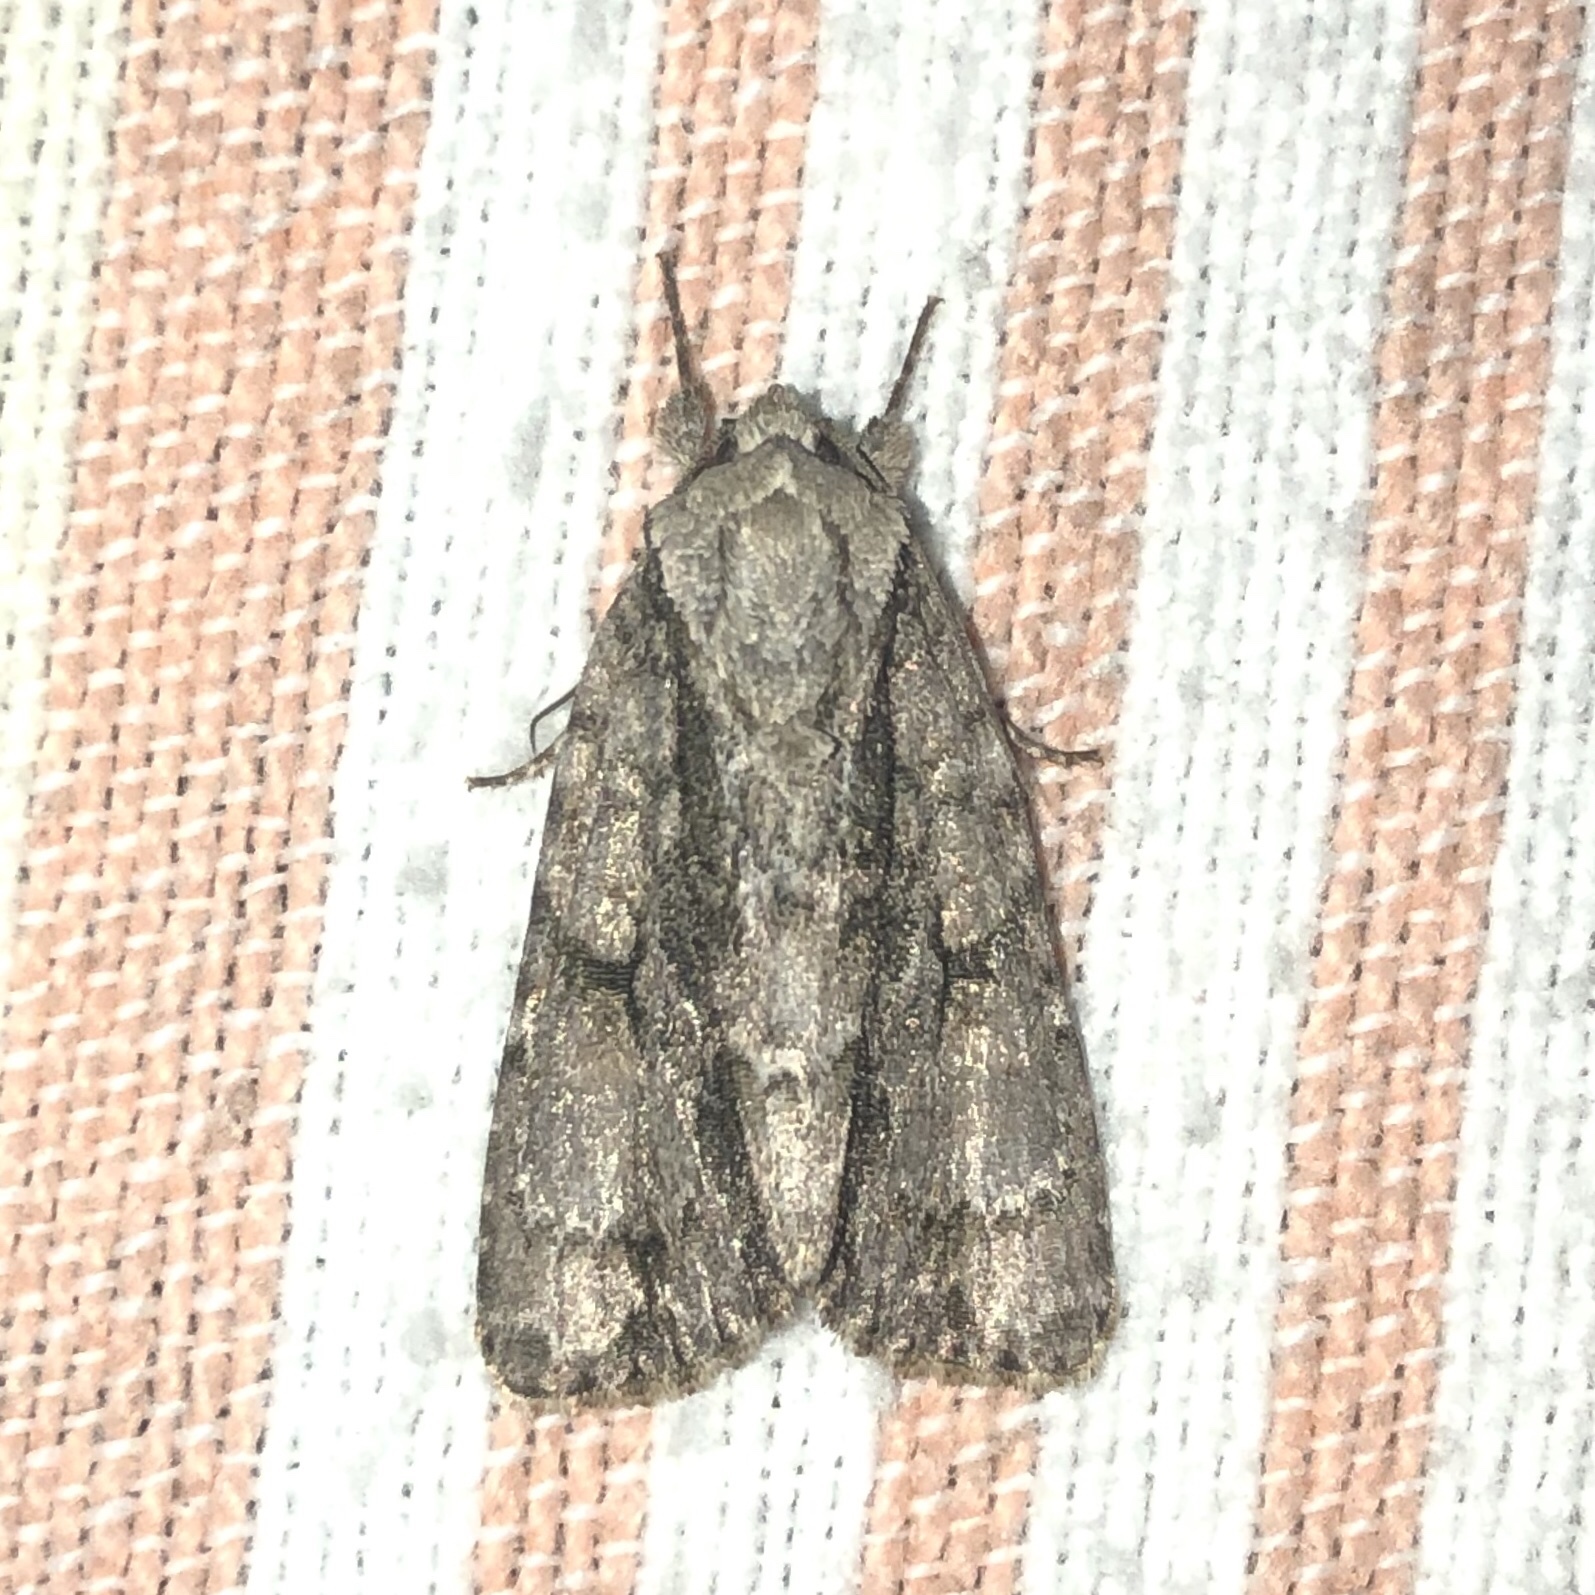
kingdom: Animalia
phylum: Arthropoda
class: Insecta
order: Lepidoptera
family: Noctuidae
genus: Acronicta
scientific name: Acronicta connecta
